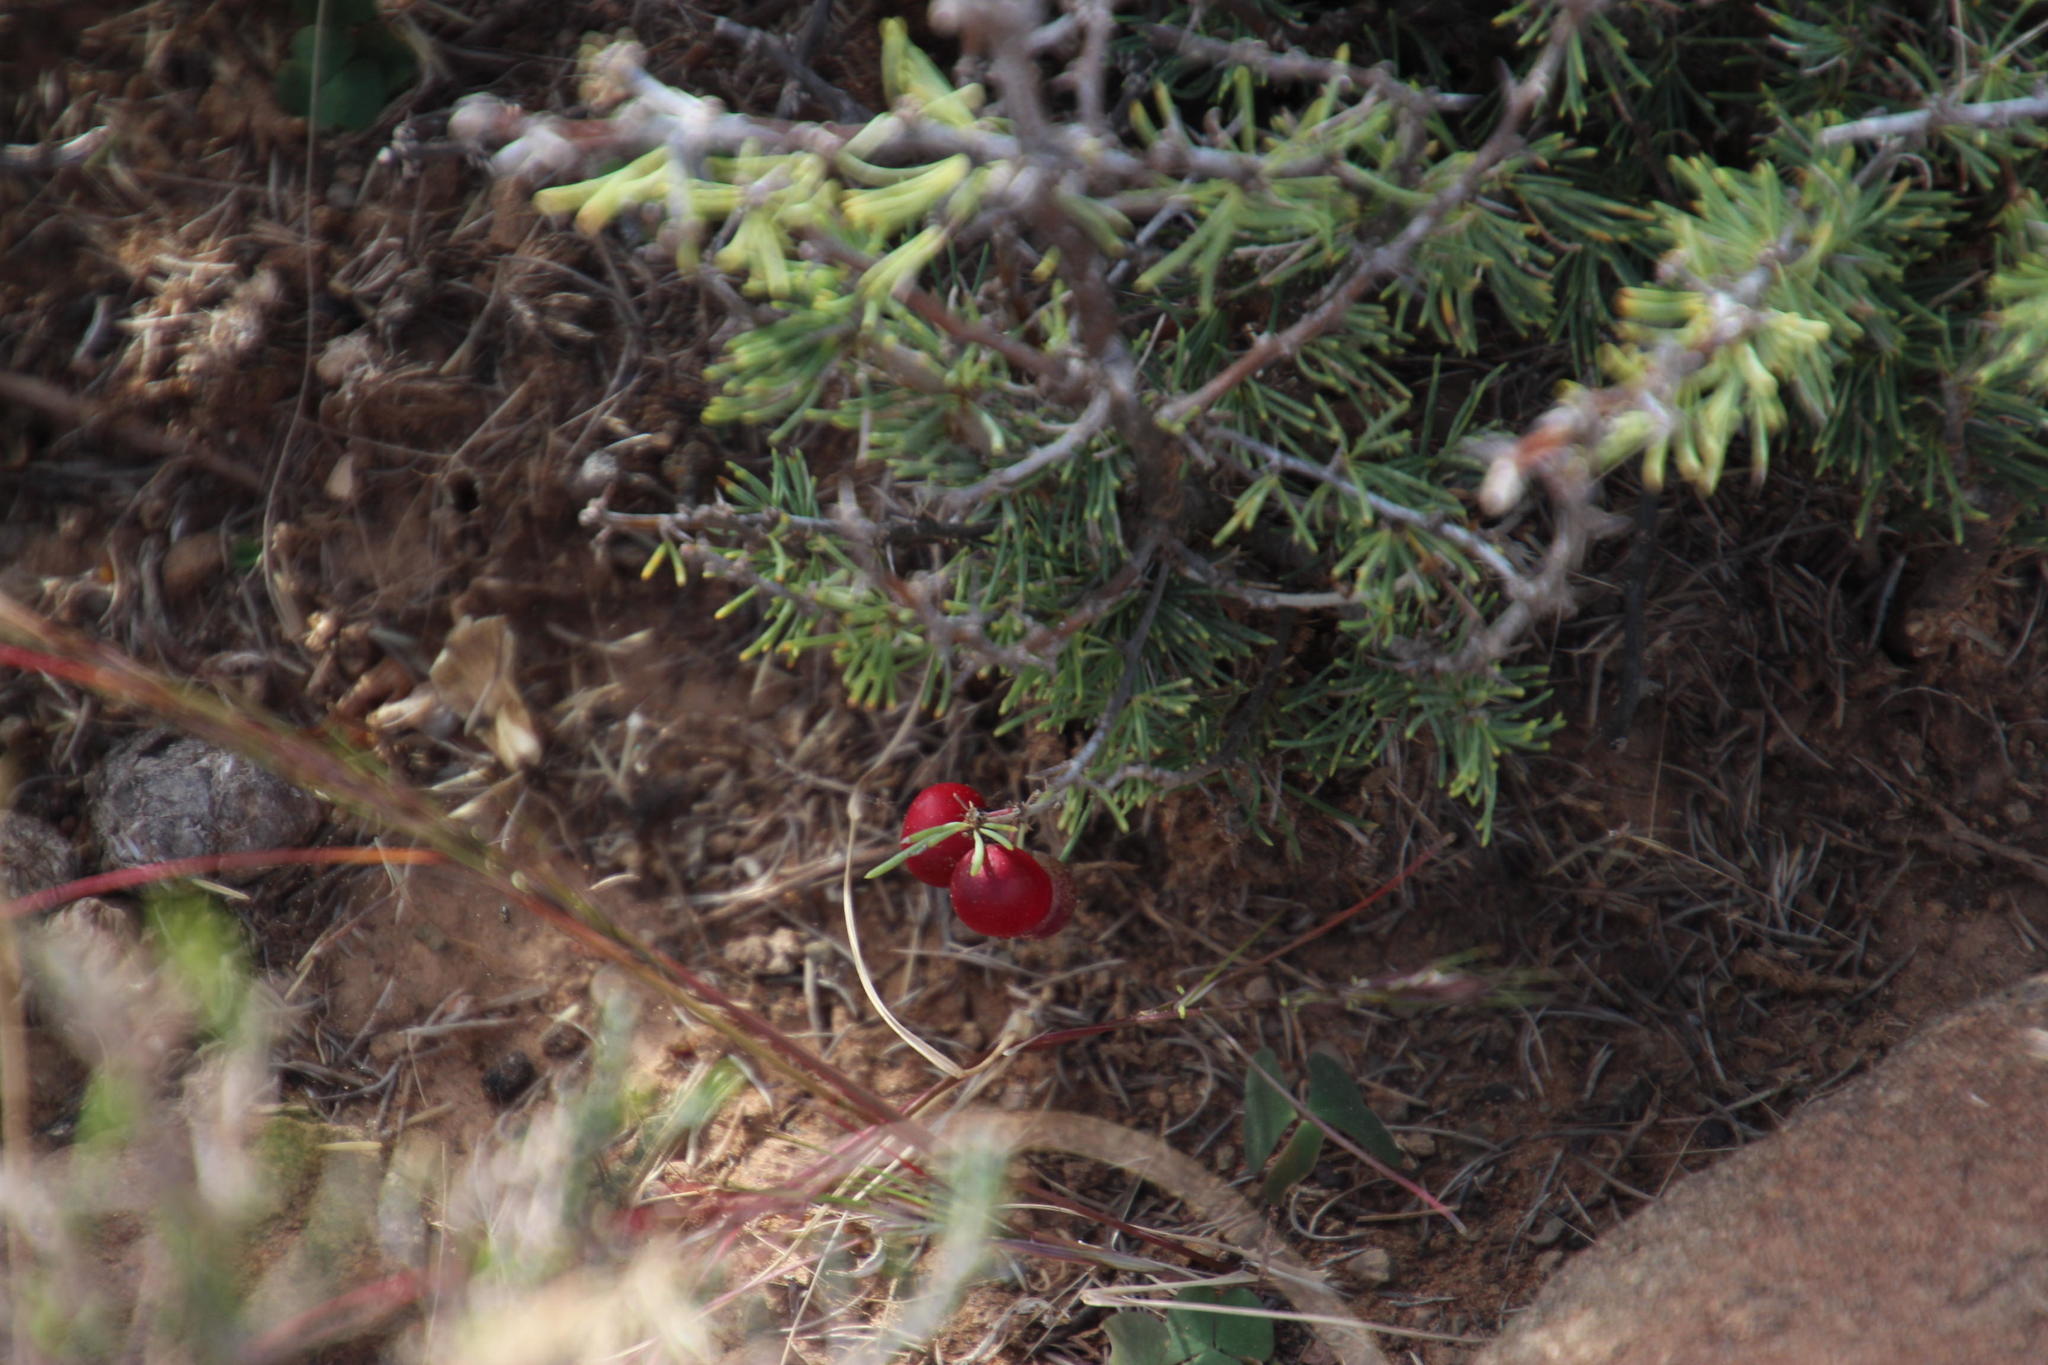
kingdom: Plantae
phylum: Tracheophyta
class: Liliopsida
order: Asparagales
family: Asparagaceae
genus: Asparagus
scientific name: Asparagus acocksii
